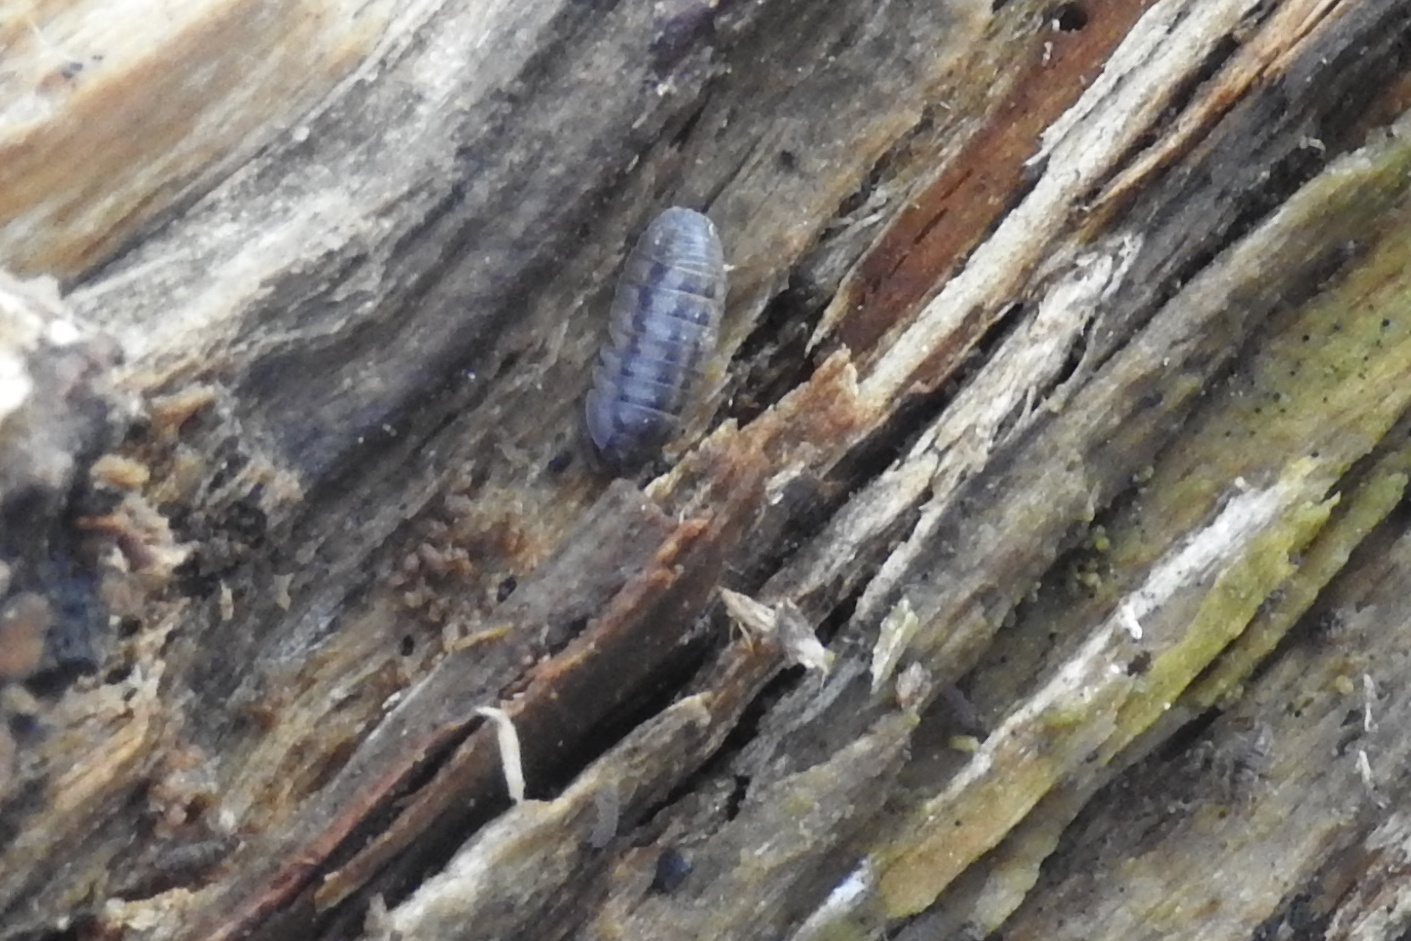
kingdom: Animalia
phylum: Arthropoda
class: Malacostraca
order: Isopoda
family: Armadillidiidae
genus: Armadillidium
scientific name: Armadillidium nasatum
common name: Isopod
